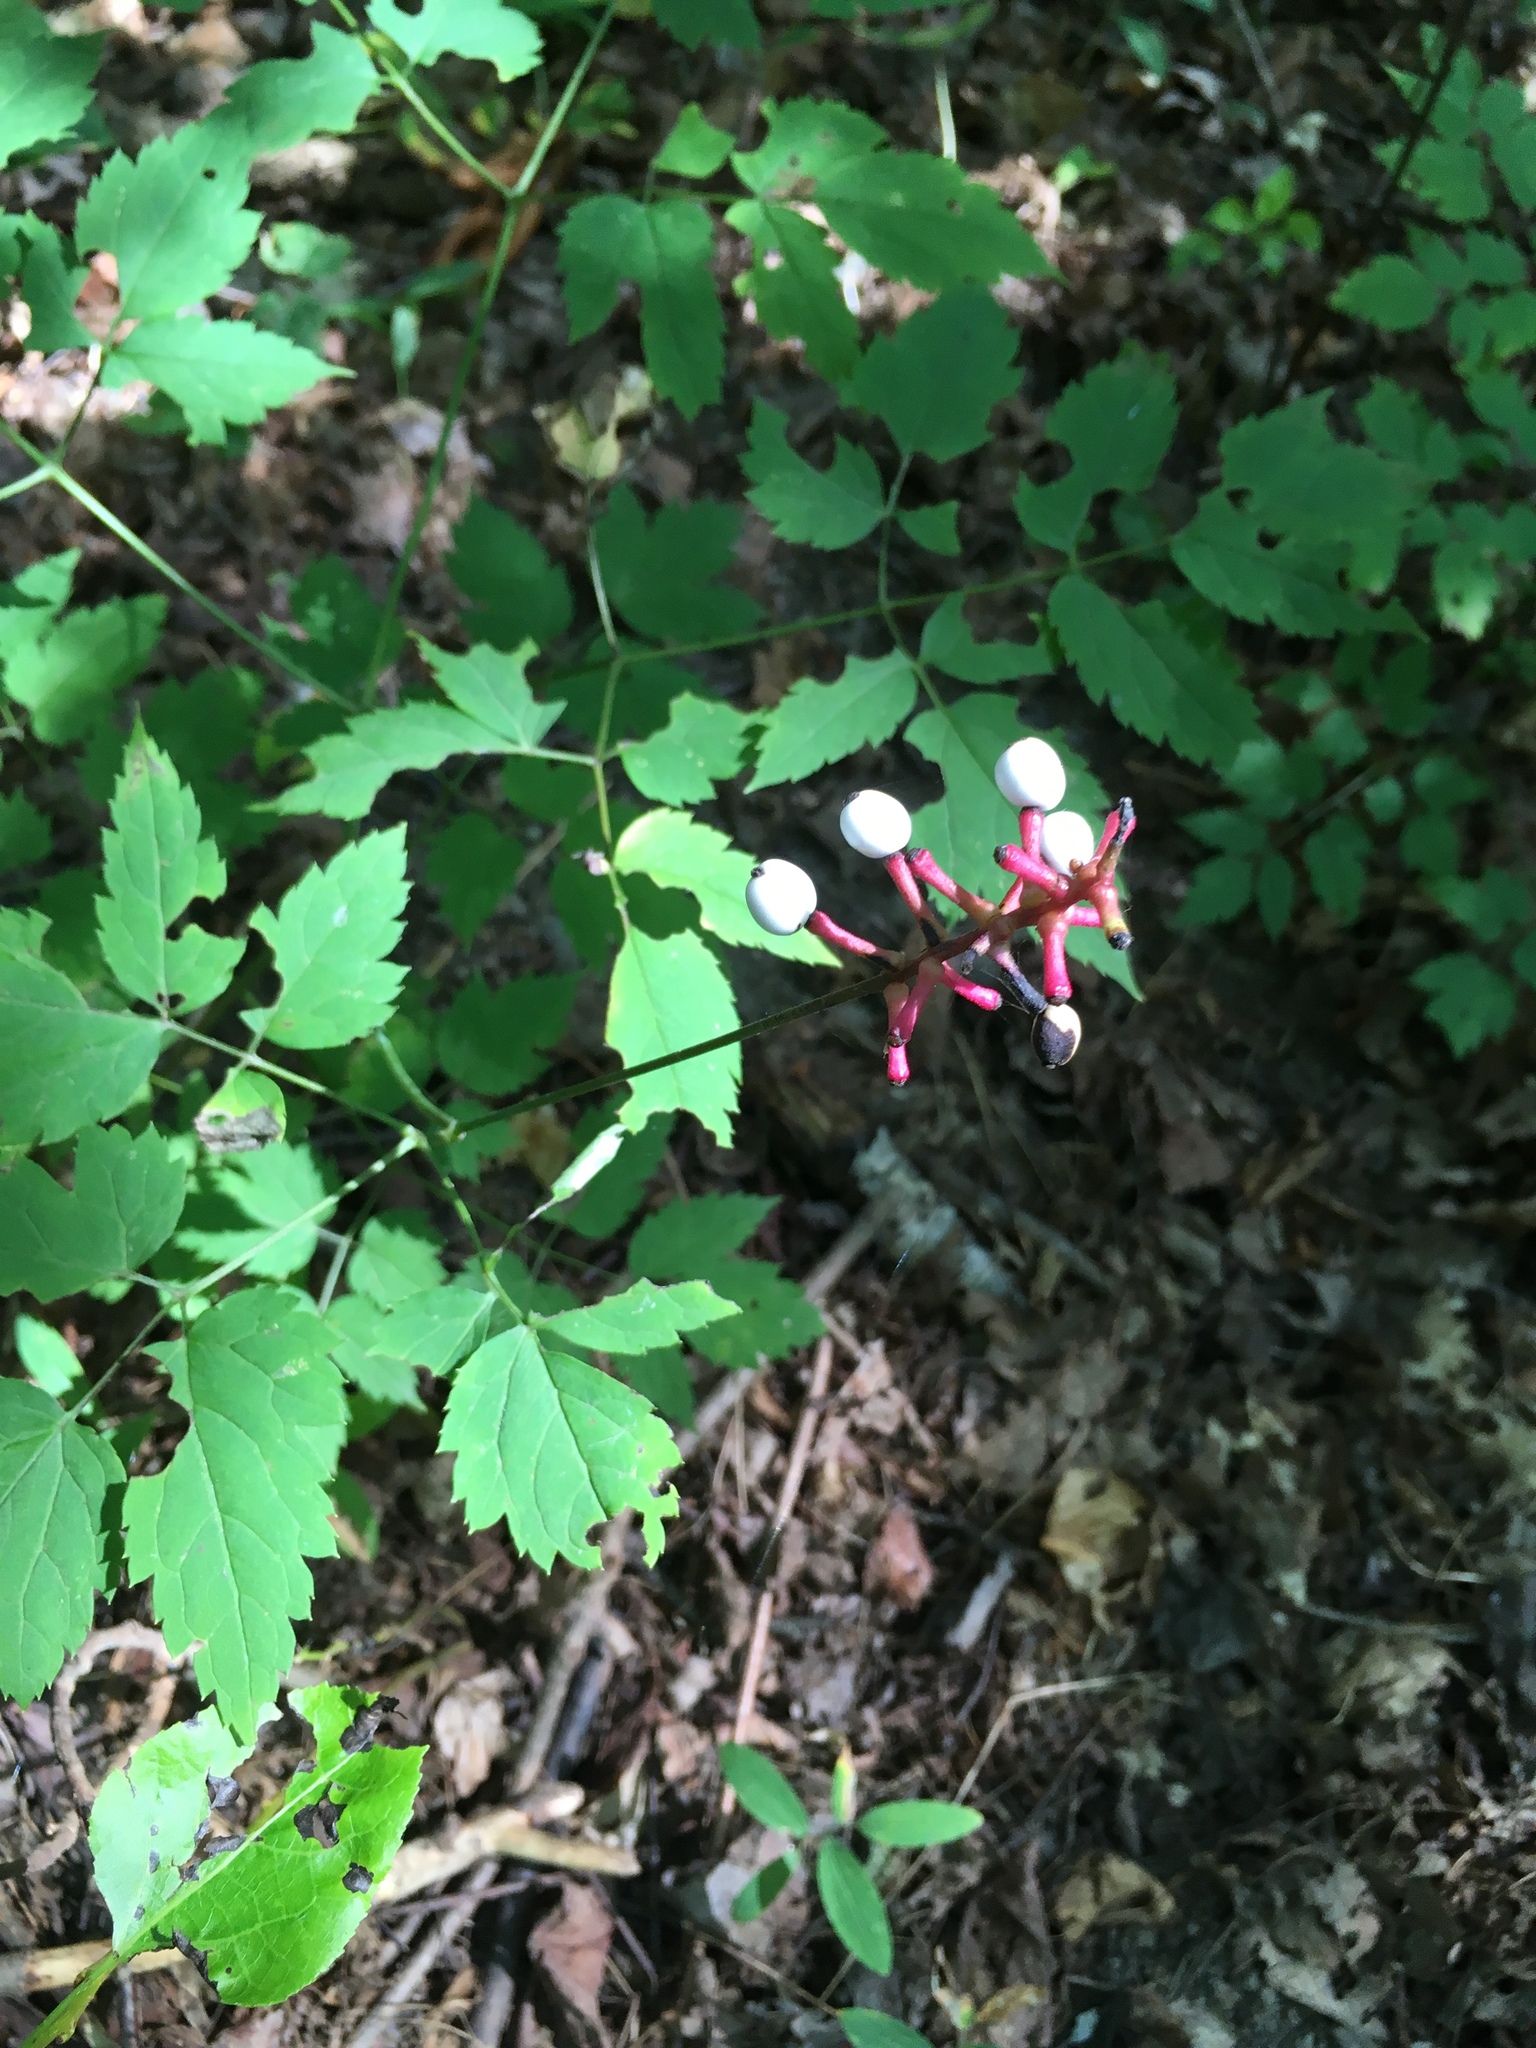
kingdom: Plantae
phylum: Tracheophyta
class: Magnoliopsida
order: Ranunculales
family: Ranunculaceae
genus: Actaea
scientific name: Actaea pachypoda
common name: Doll's-eyes
